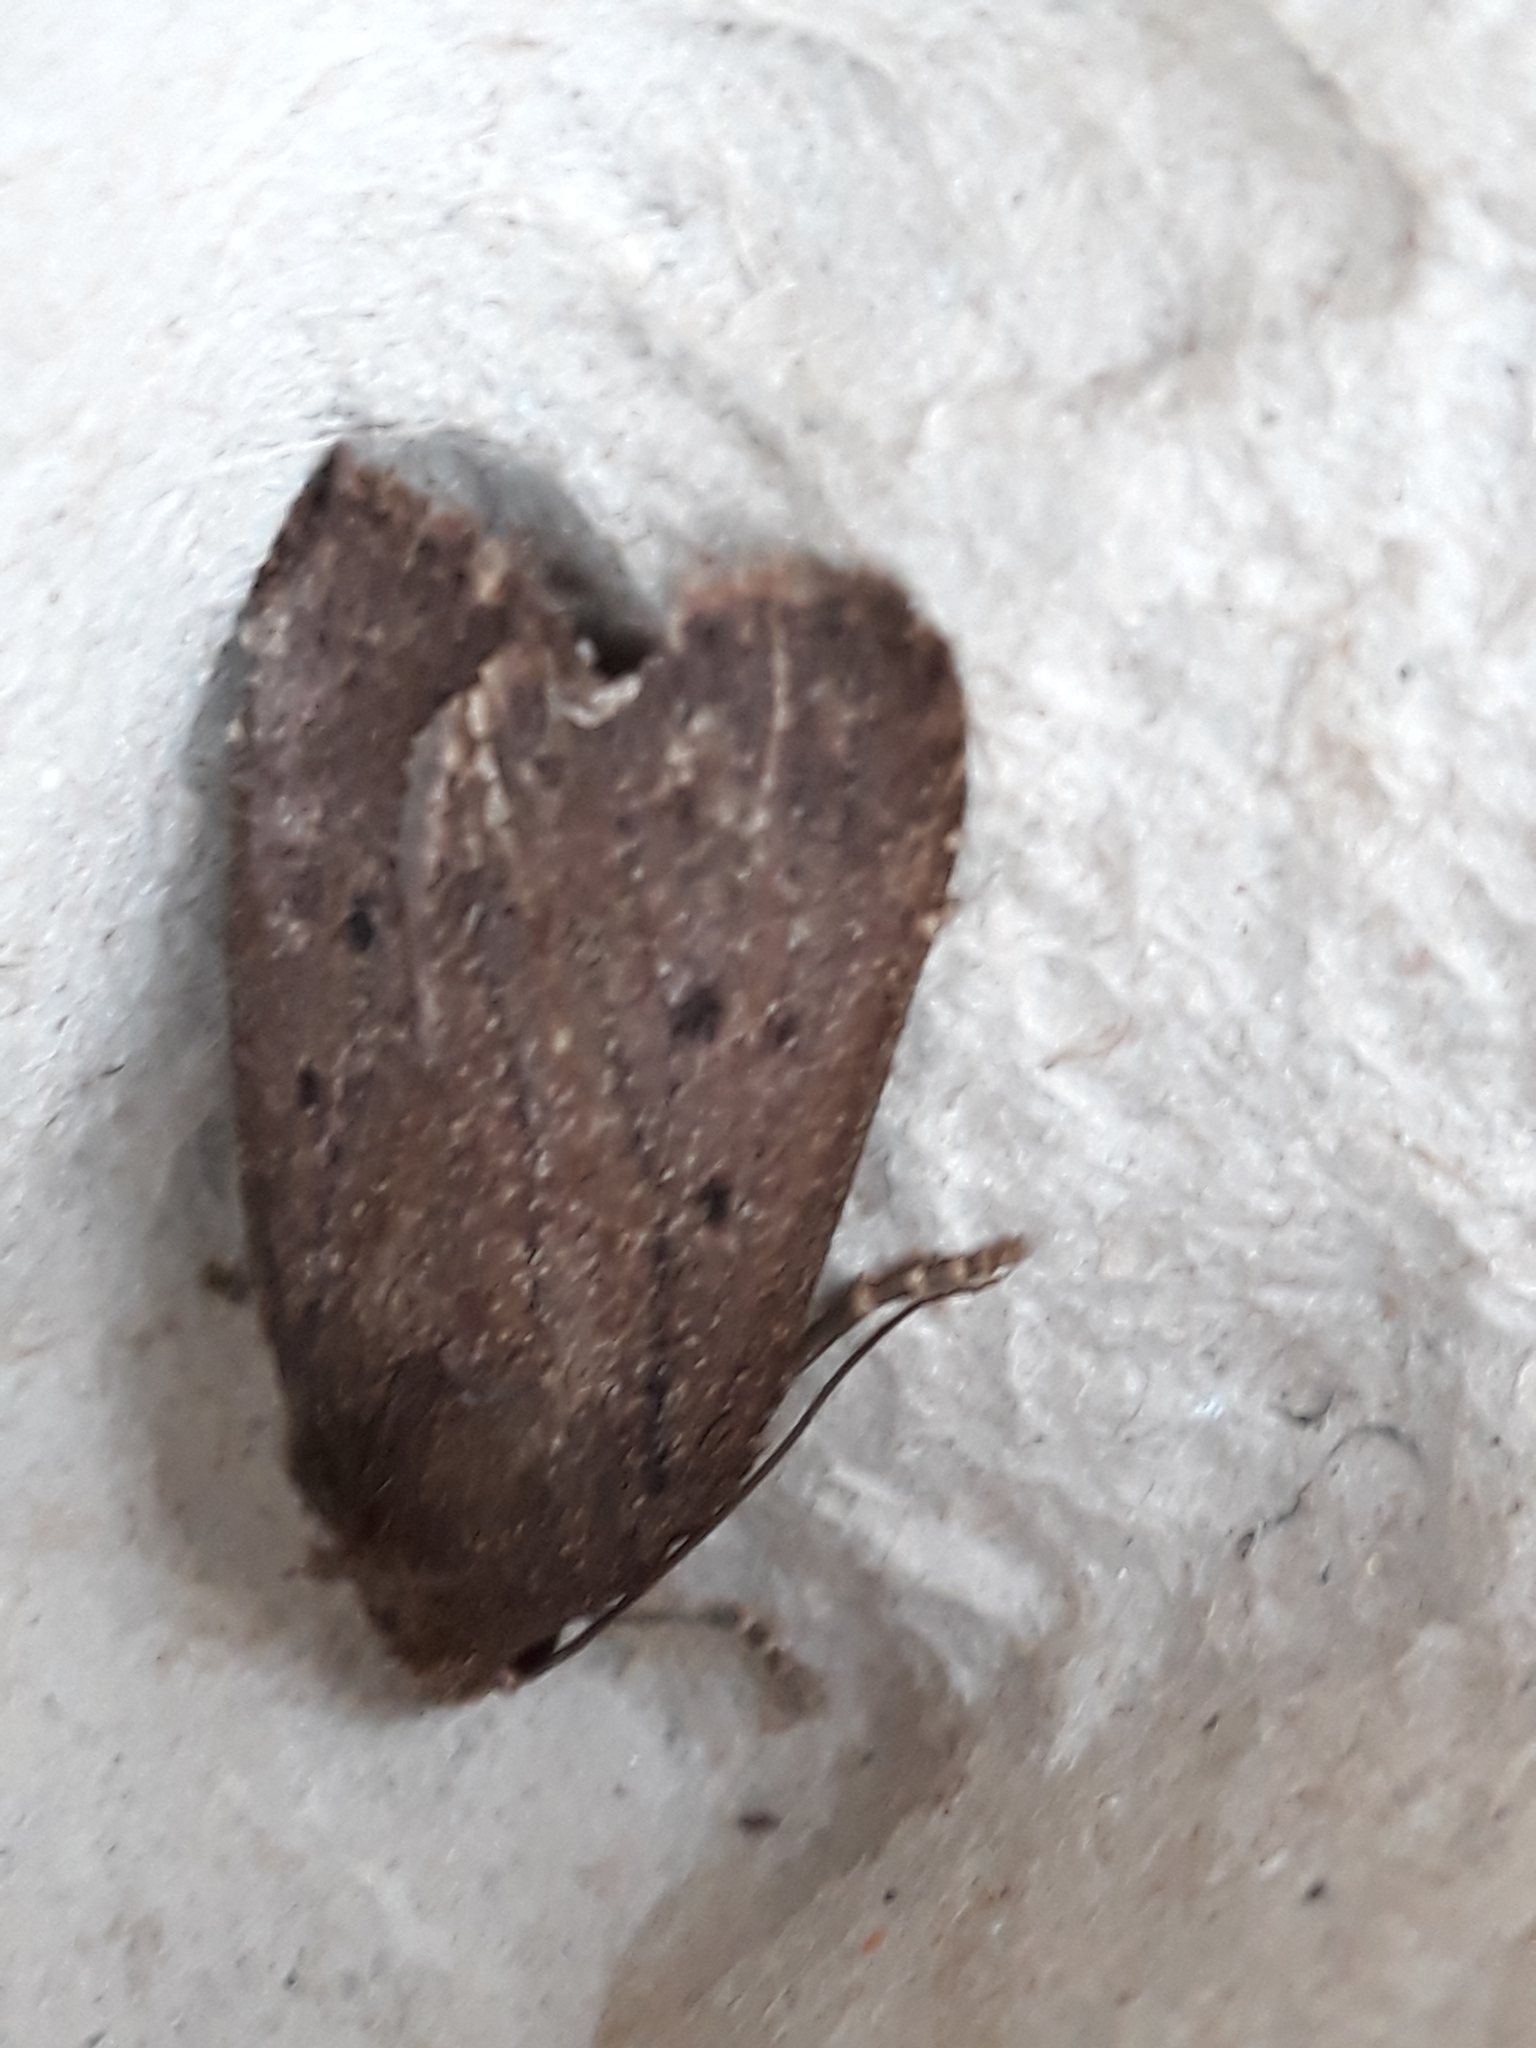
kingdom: Animalia
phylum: Arthropoda
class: Insecta
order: Lepidoptera
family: Noctuidae
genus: Amphipyra
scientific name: Amphipyra tragopoginis
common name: Mouse moth
